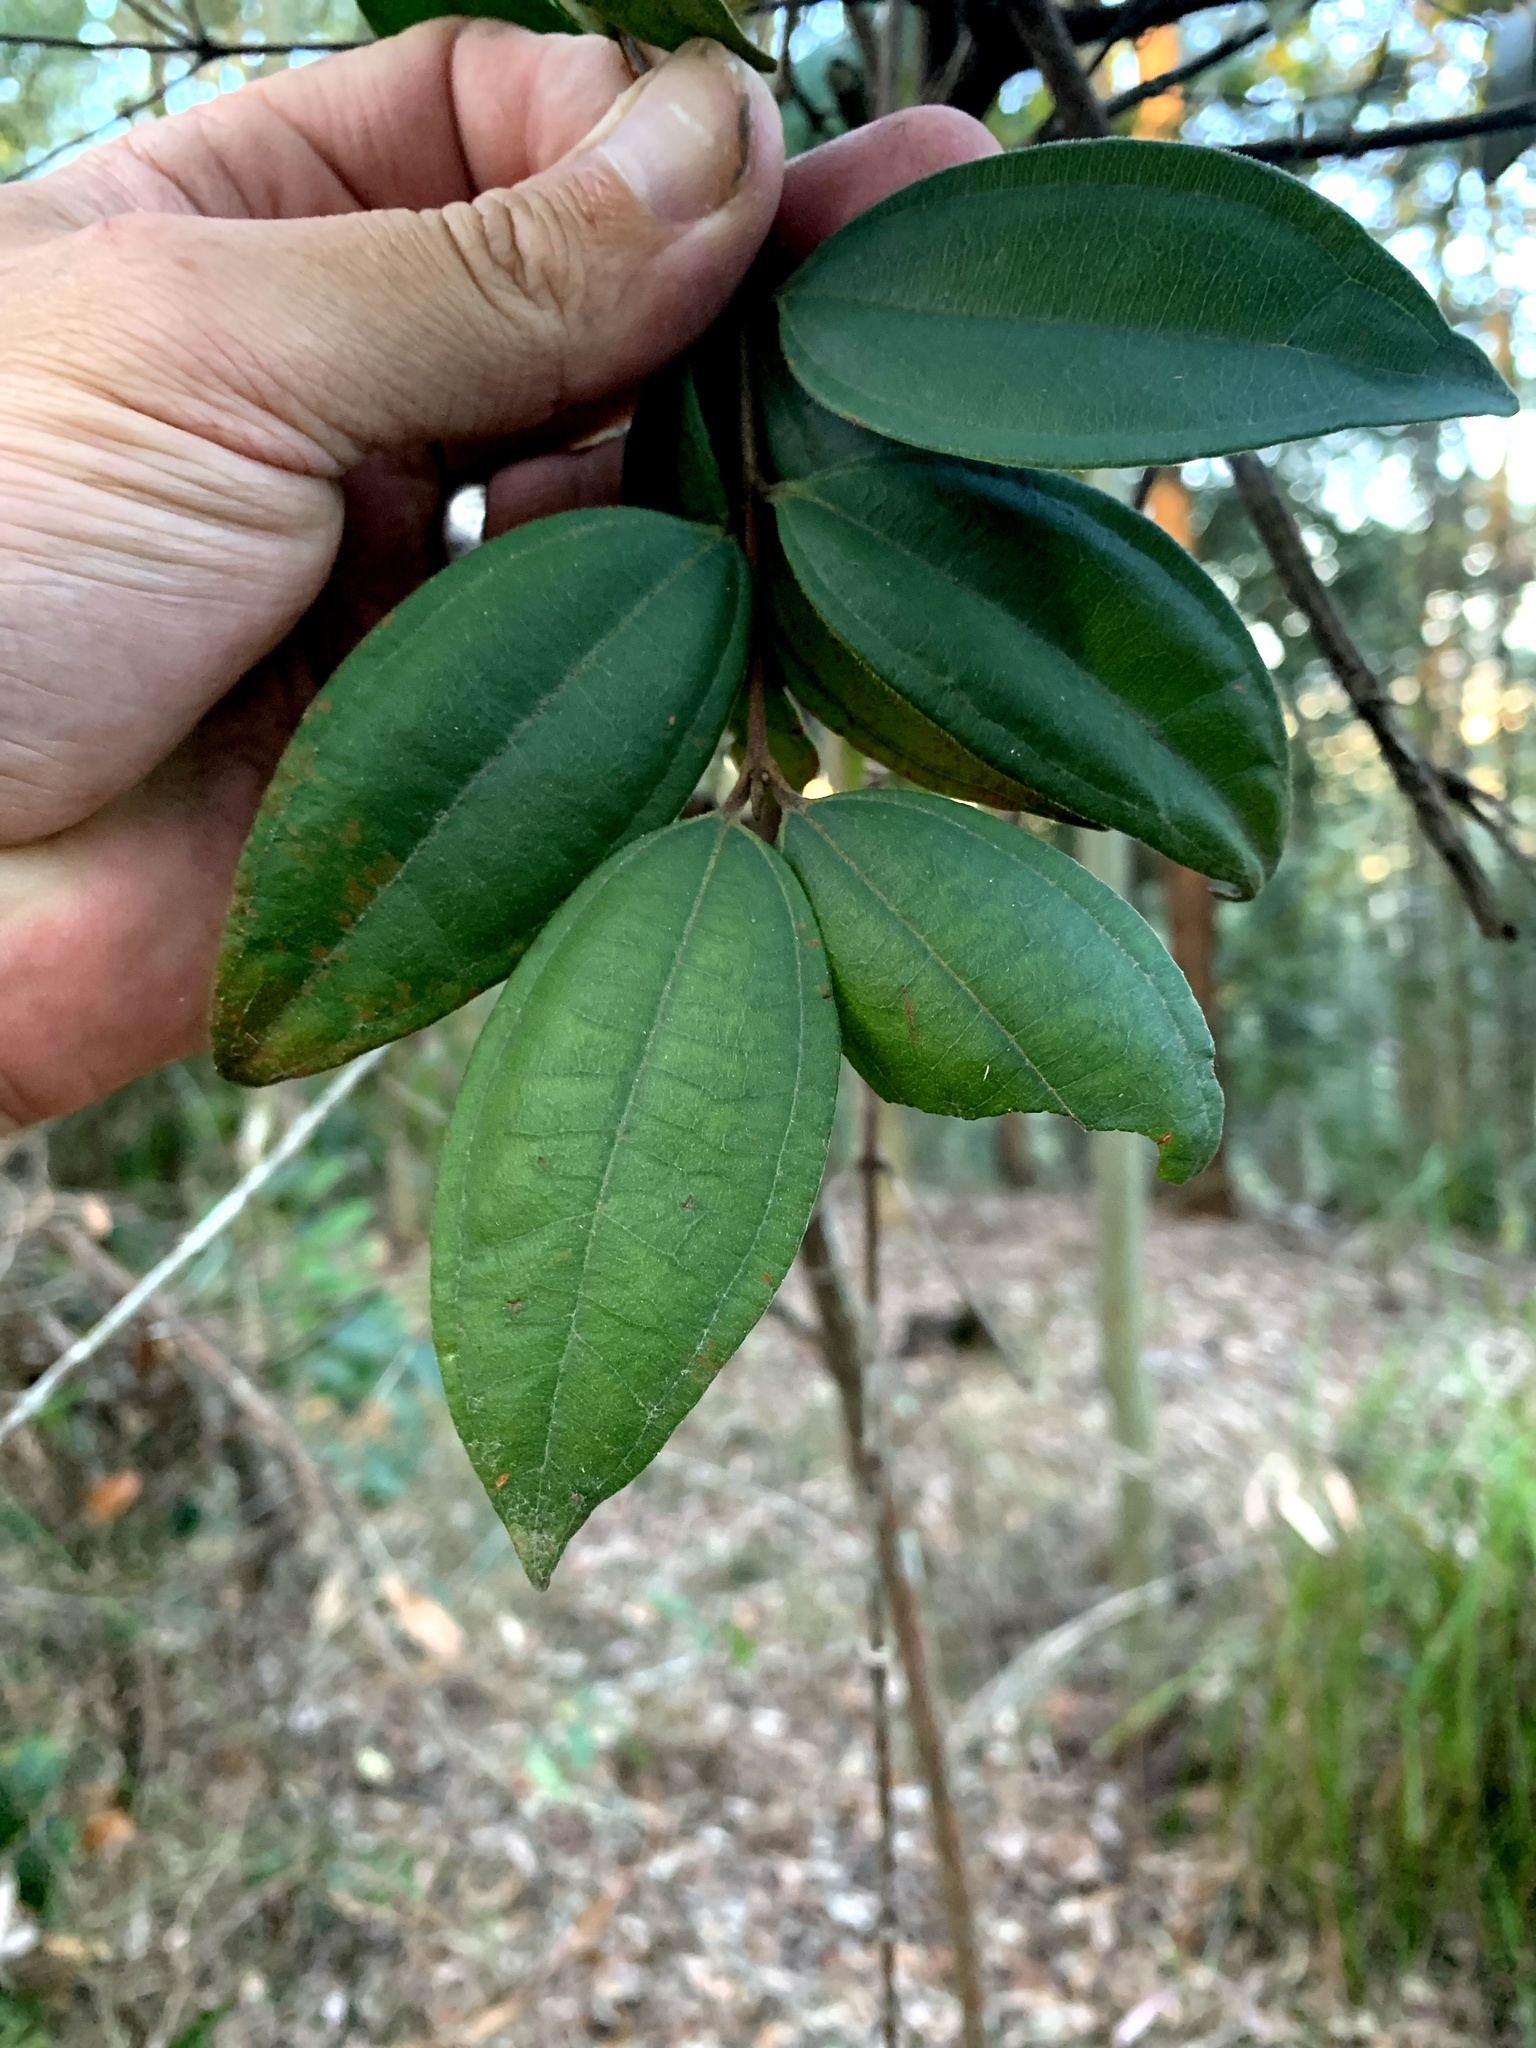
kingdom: Plantae
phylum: Tracheophyta
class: Magnoliopsida
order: Myrtales
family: Myrtaceae
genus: Rhodamnia
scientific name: Rhodamnia rubescens
